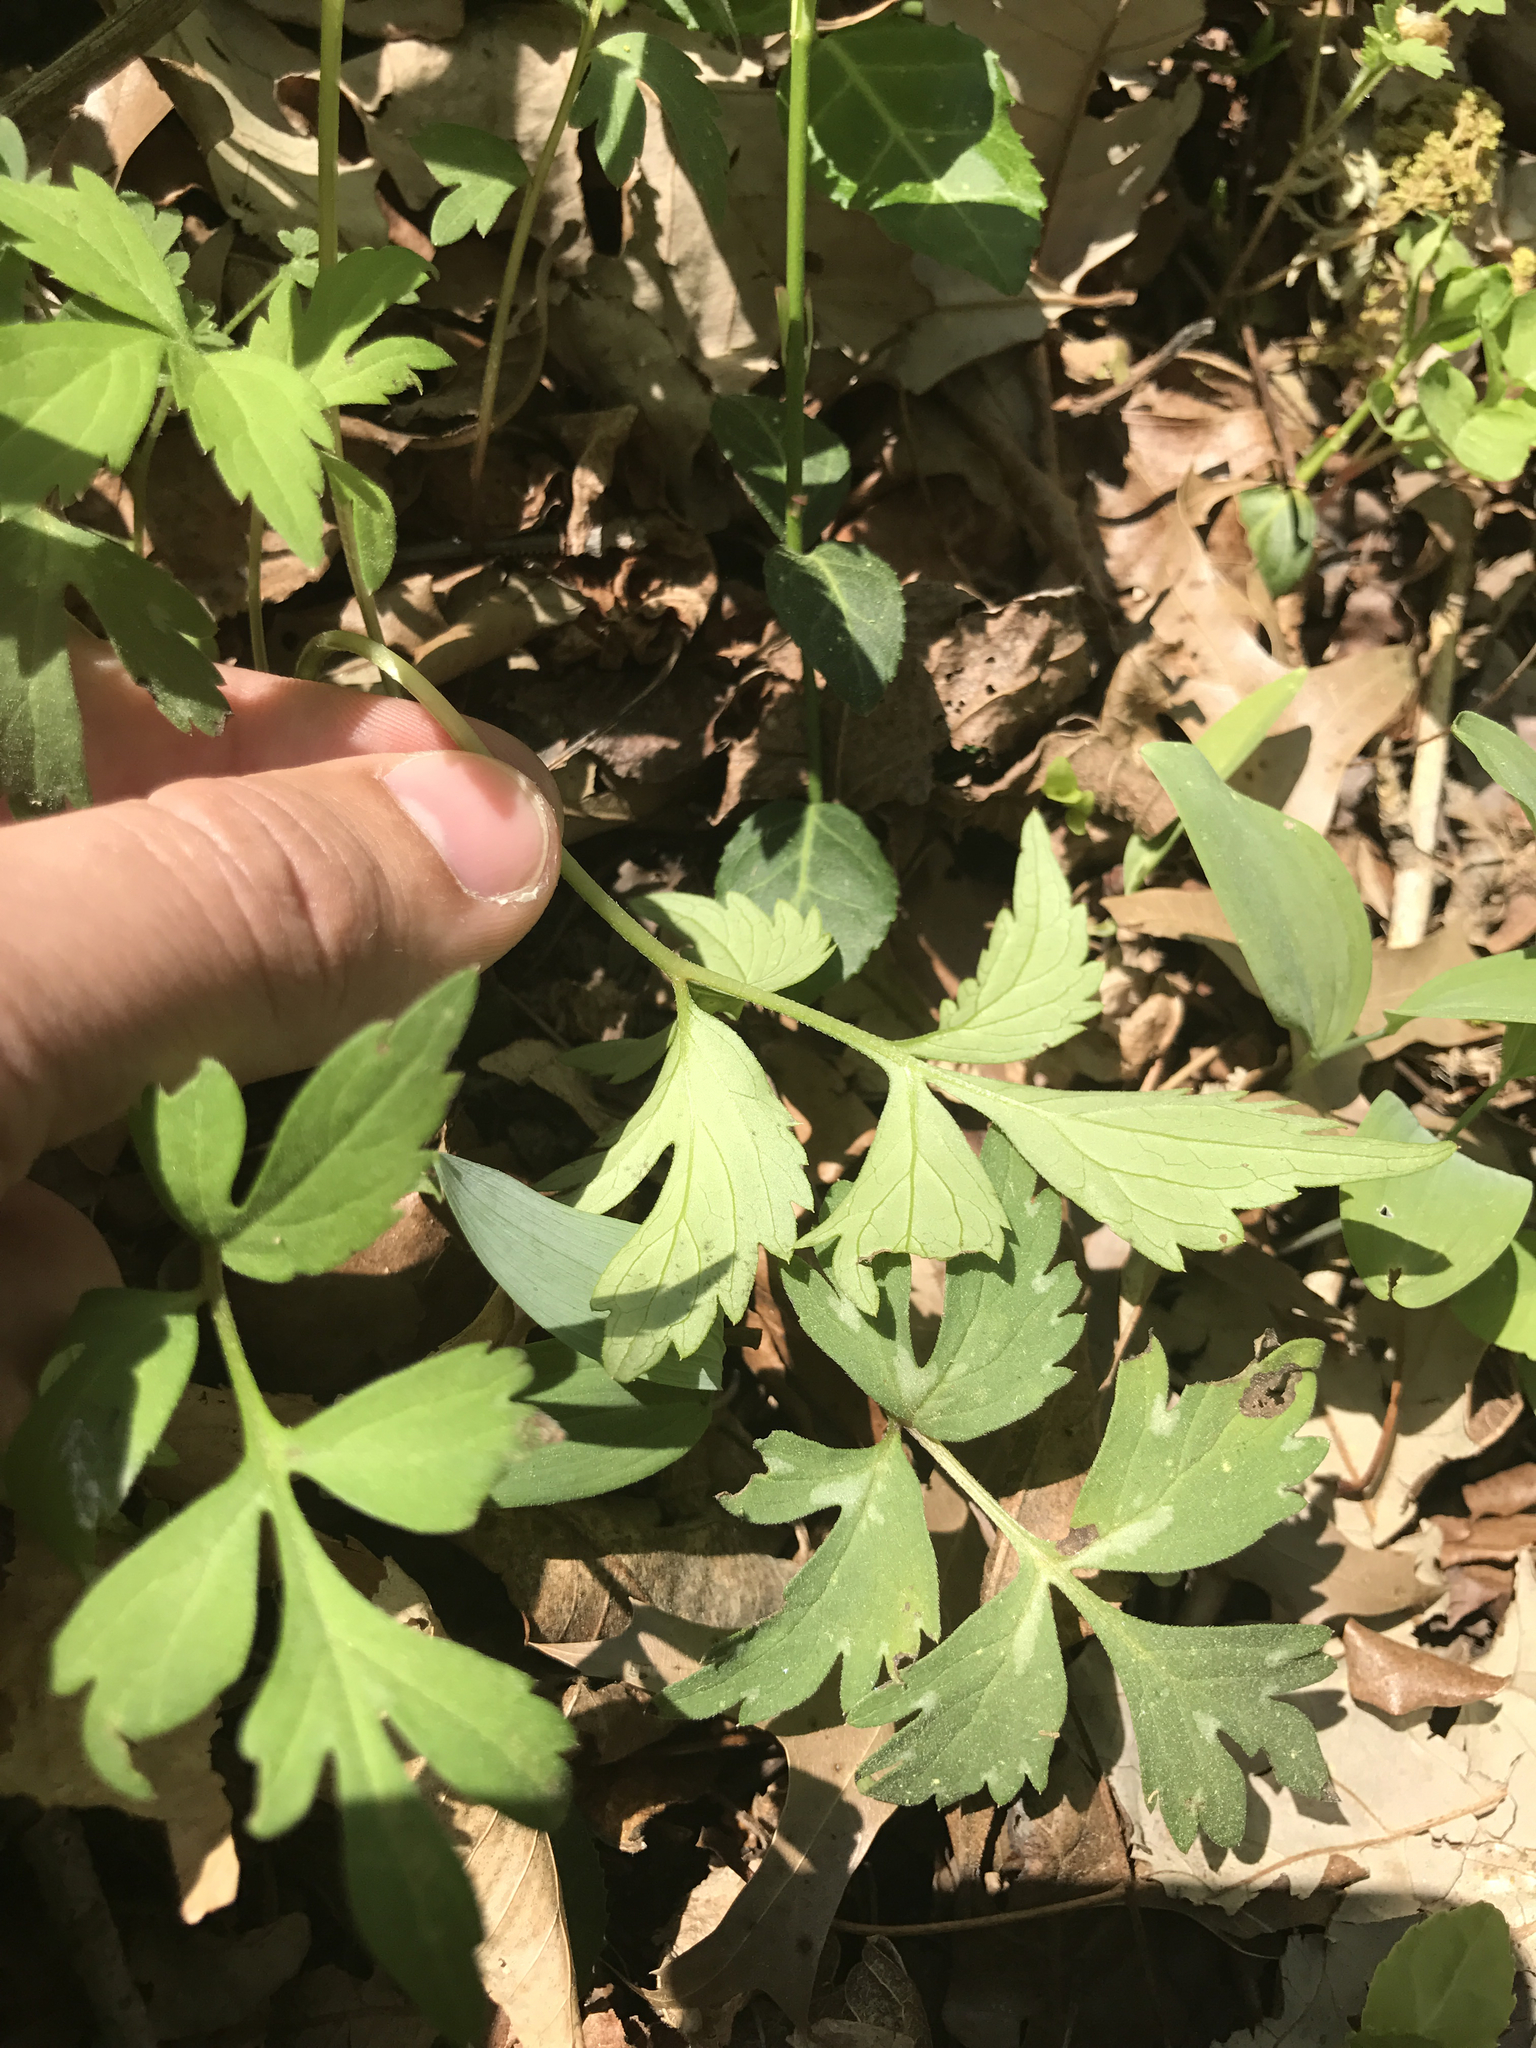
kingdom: Plantae
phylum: Tracheophyta
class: Magnoliopsida
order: Boraginales
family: Hydrophyllaceae
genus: Hydrophyllum
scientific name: Hydrophyllum virginianum
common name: Virginia waterleaf
